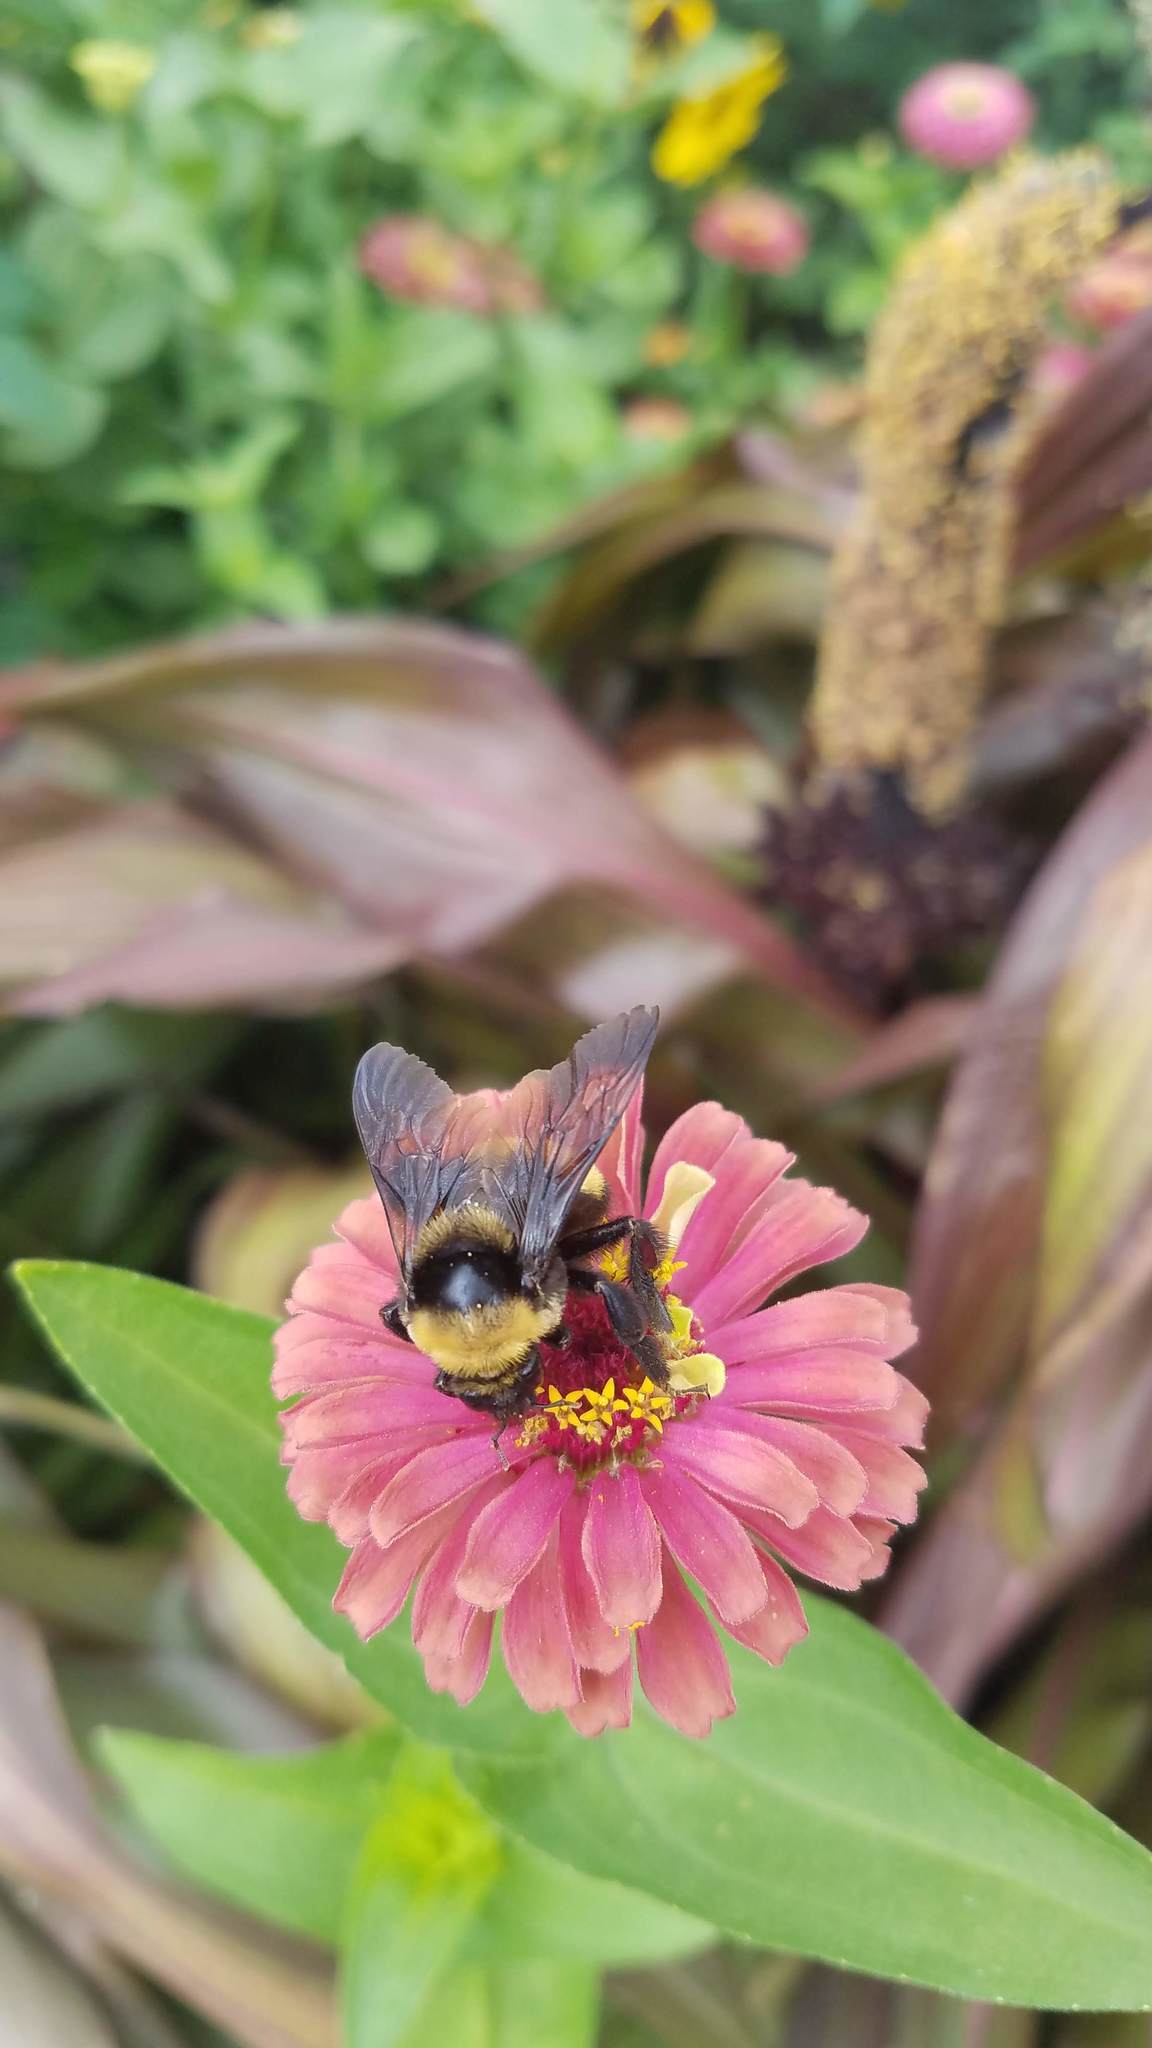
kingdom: Animalia
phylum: Arthropoda
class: Insecta
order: Hymenoptera
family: Apidae
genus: Bombus
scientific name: Bombus auricomus
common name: Black and gold bumble bee
